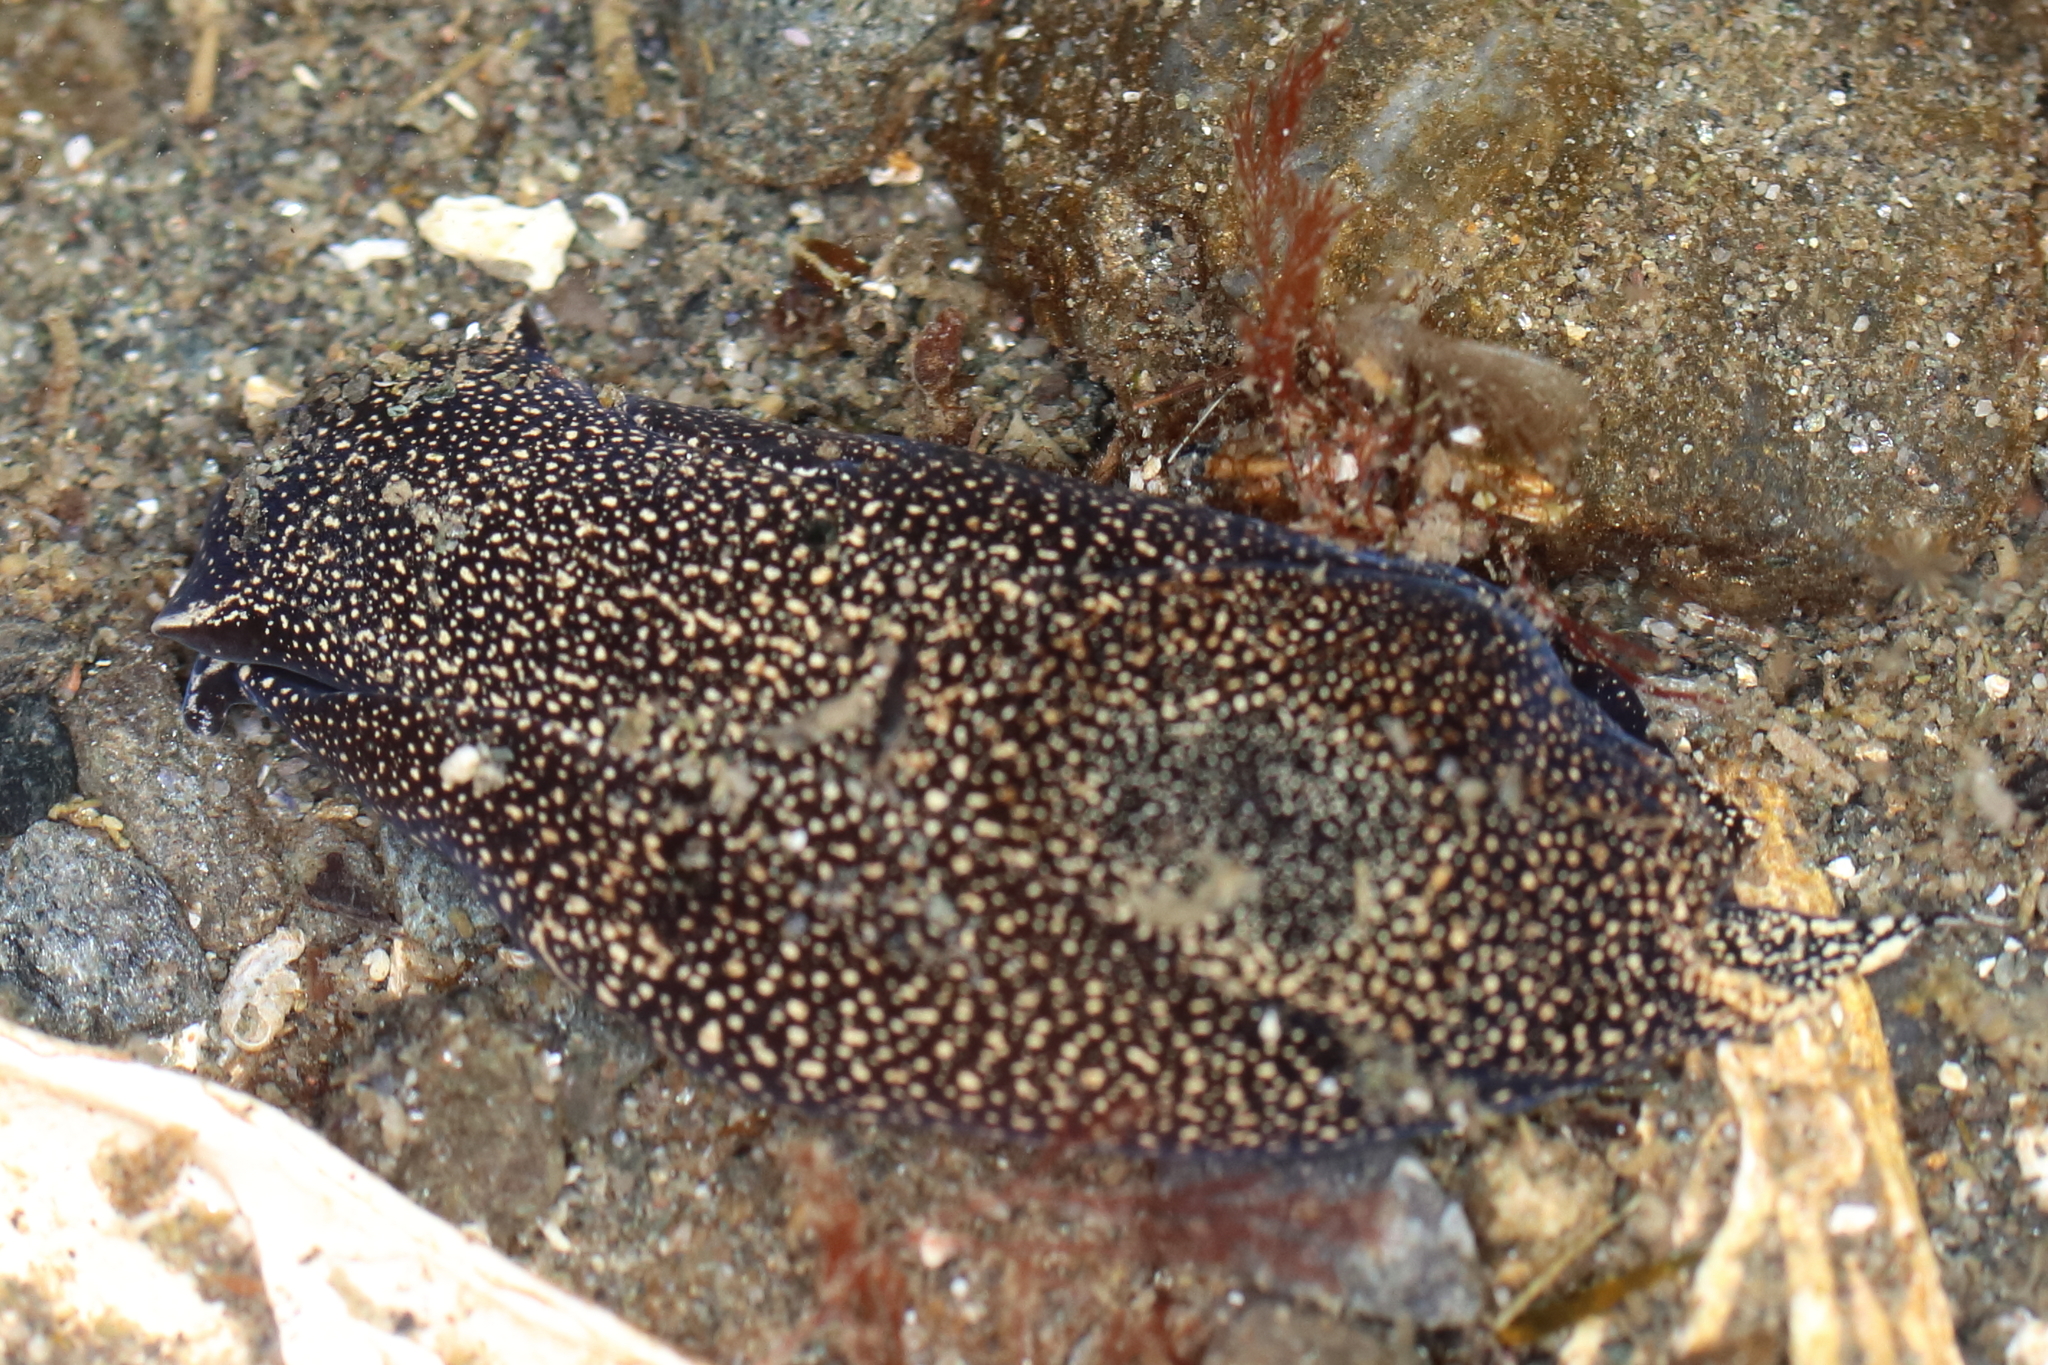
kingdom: Animalia
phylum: Mollusca
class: Gastropoda
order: Cephalaspidea
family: Aglajidae
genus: Aglaja
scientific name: Aglaja ocelligera
